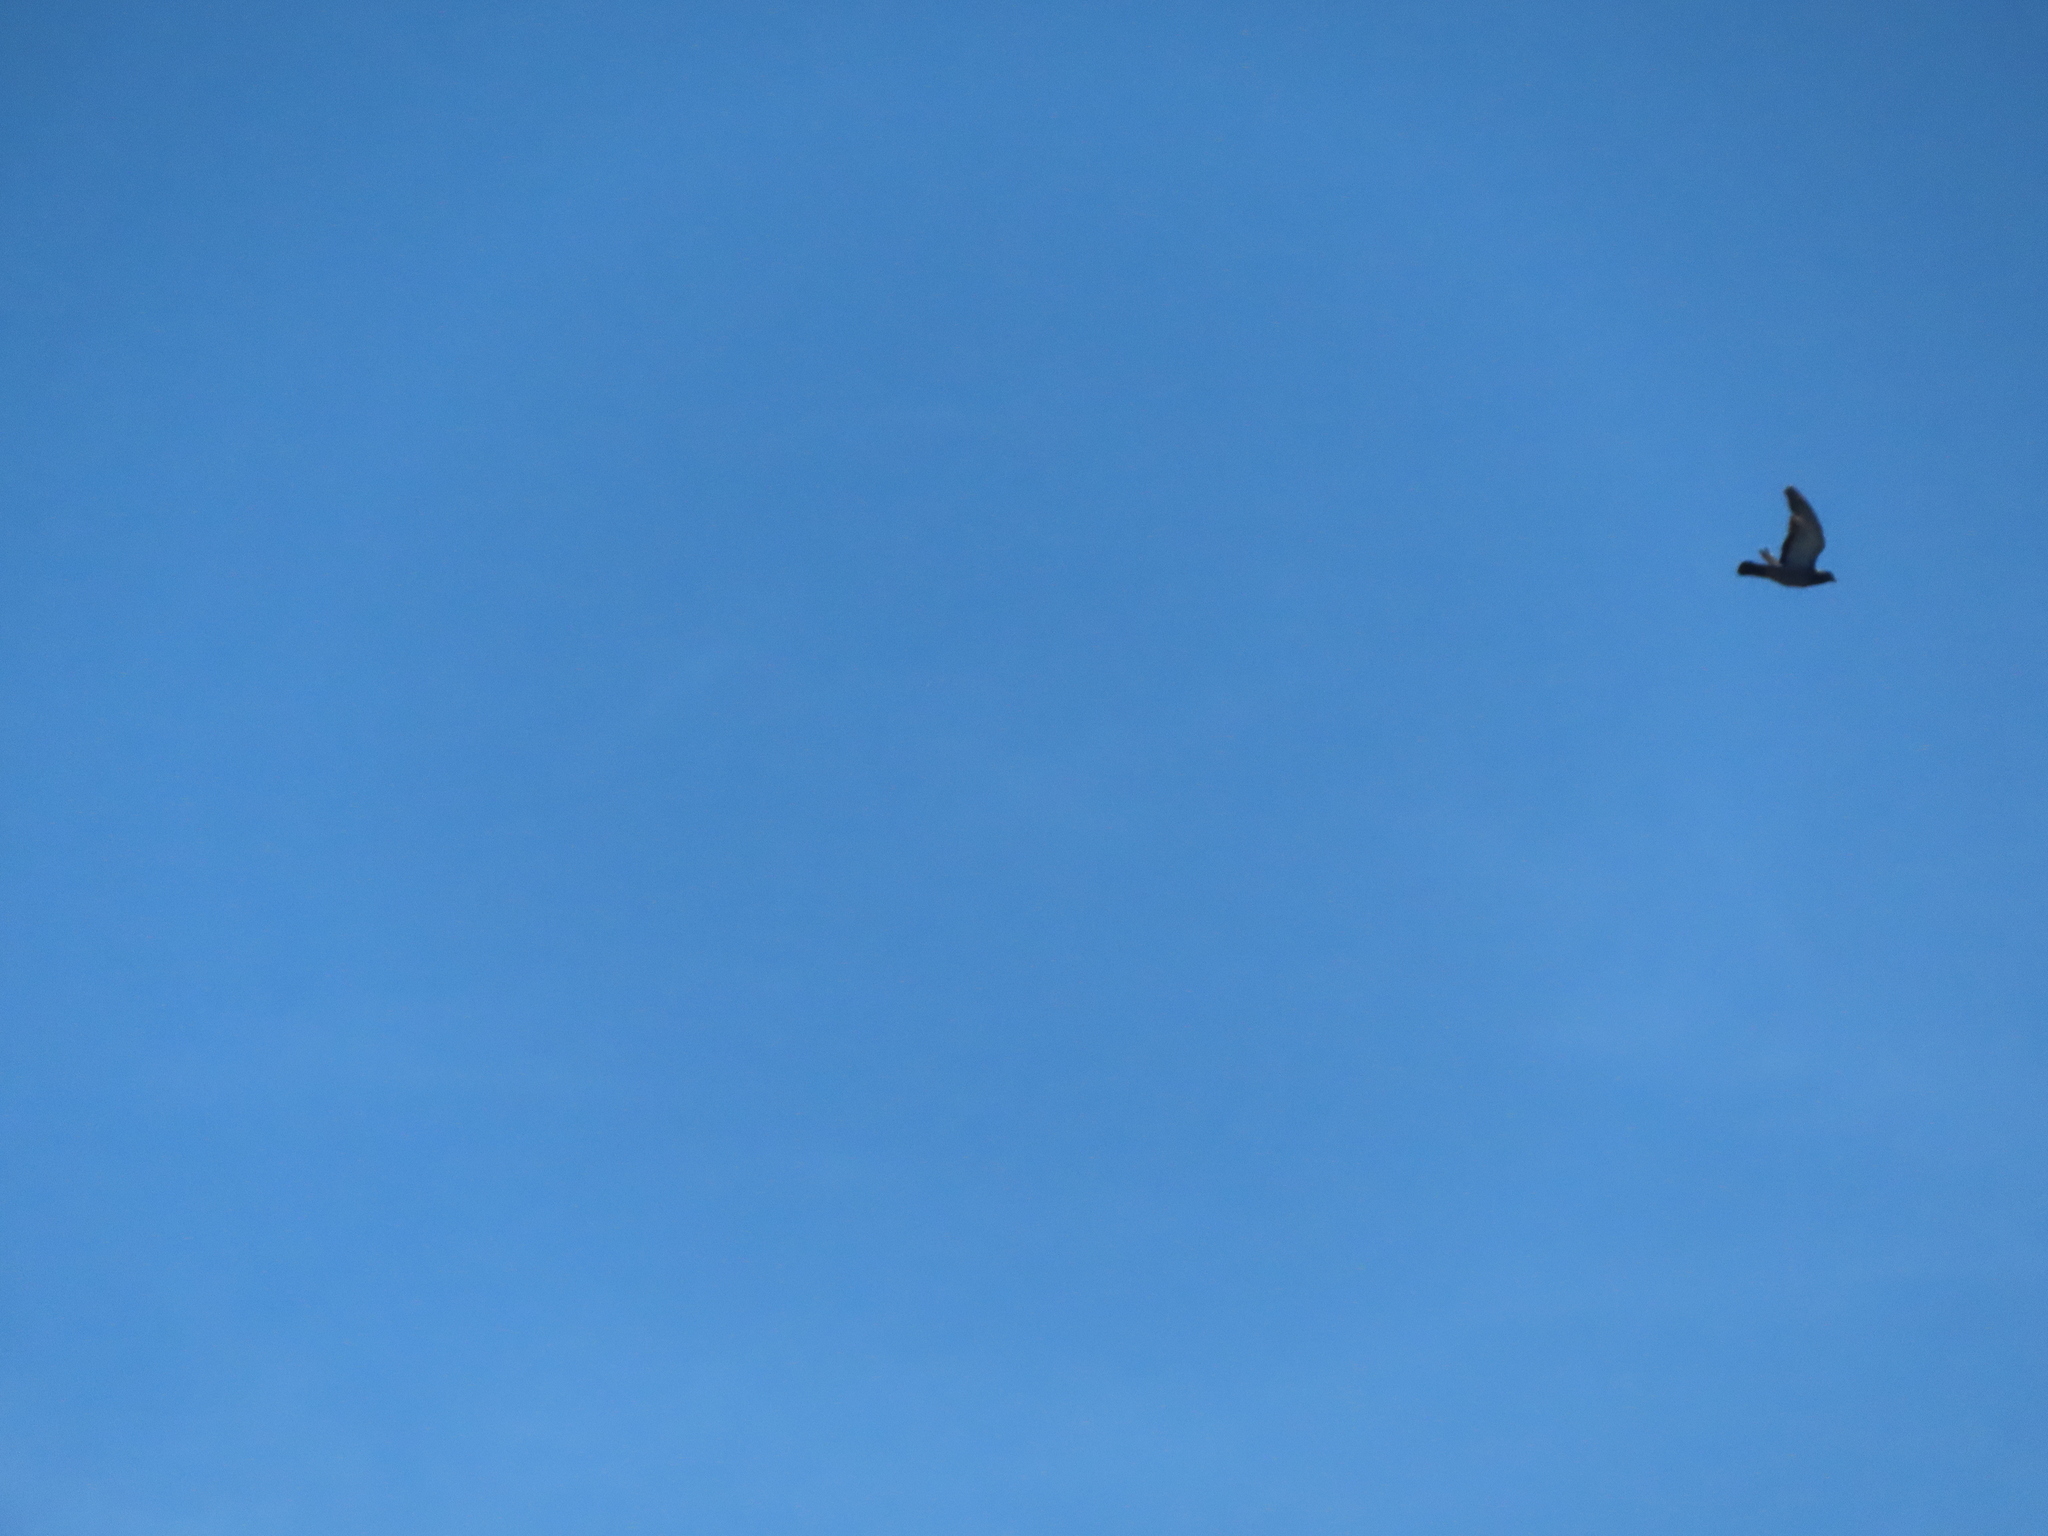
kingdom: Animalia
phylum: Chordata
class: Aves
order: Columbiformes
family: Columbidae
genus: Columba
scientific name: Columba livia
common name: Rock pigeon
